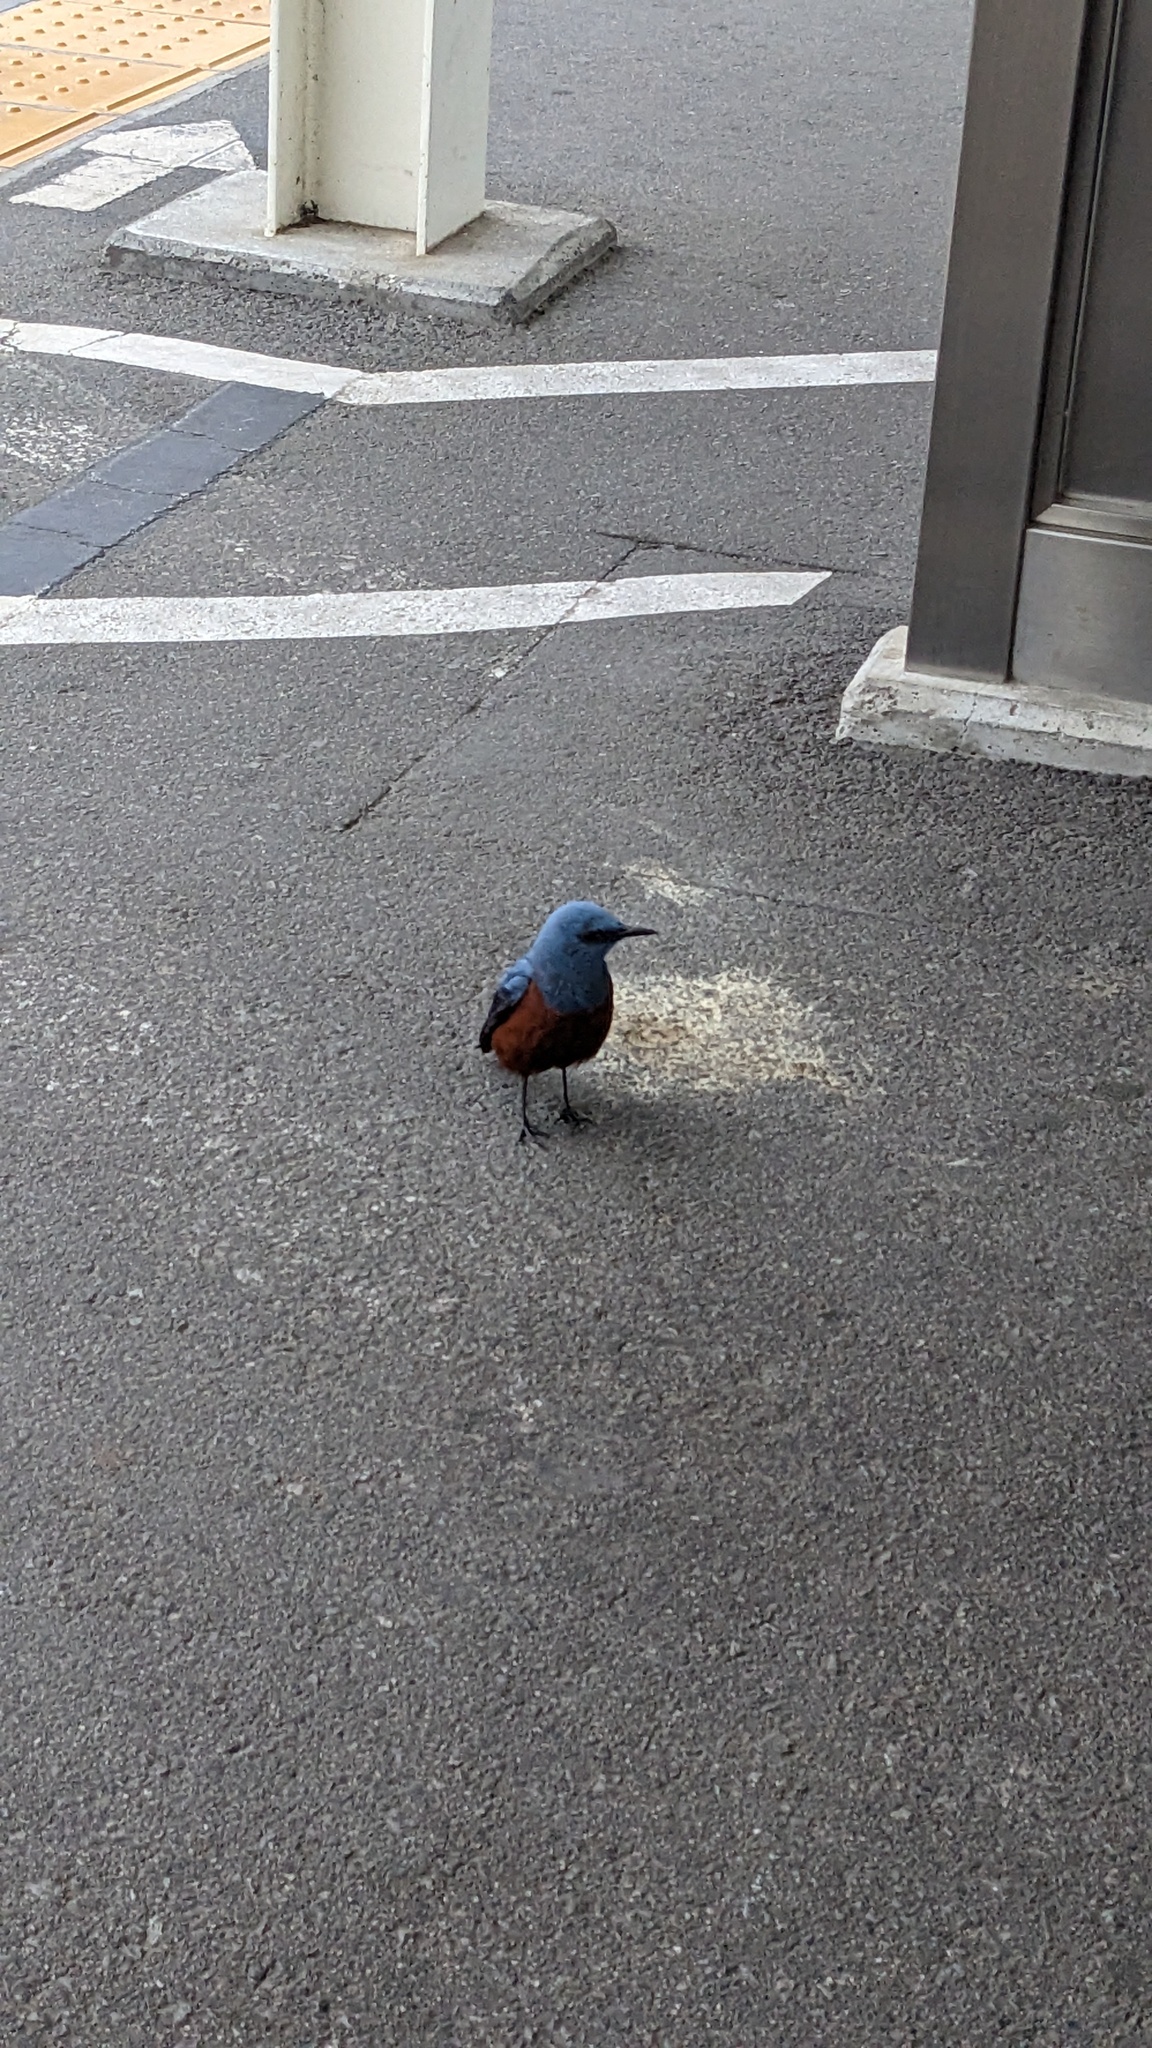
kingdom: Animalia
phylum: Chordata
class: Aves
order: Passeriformes
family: Muscicapidae
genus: Monticola
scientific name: Monticola solitarius
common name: Blue rock thrush
